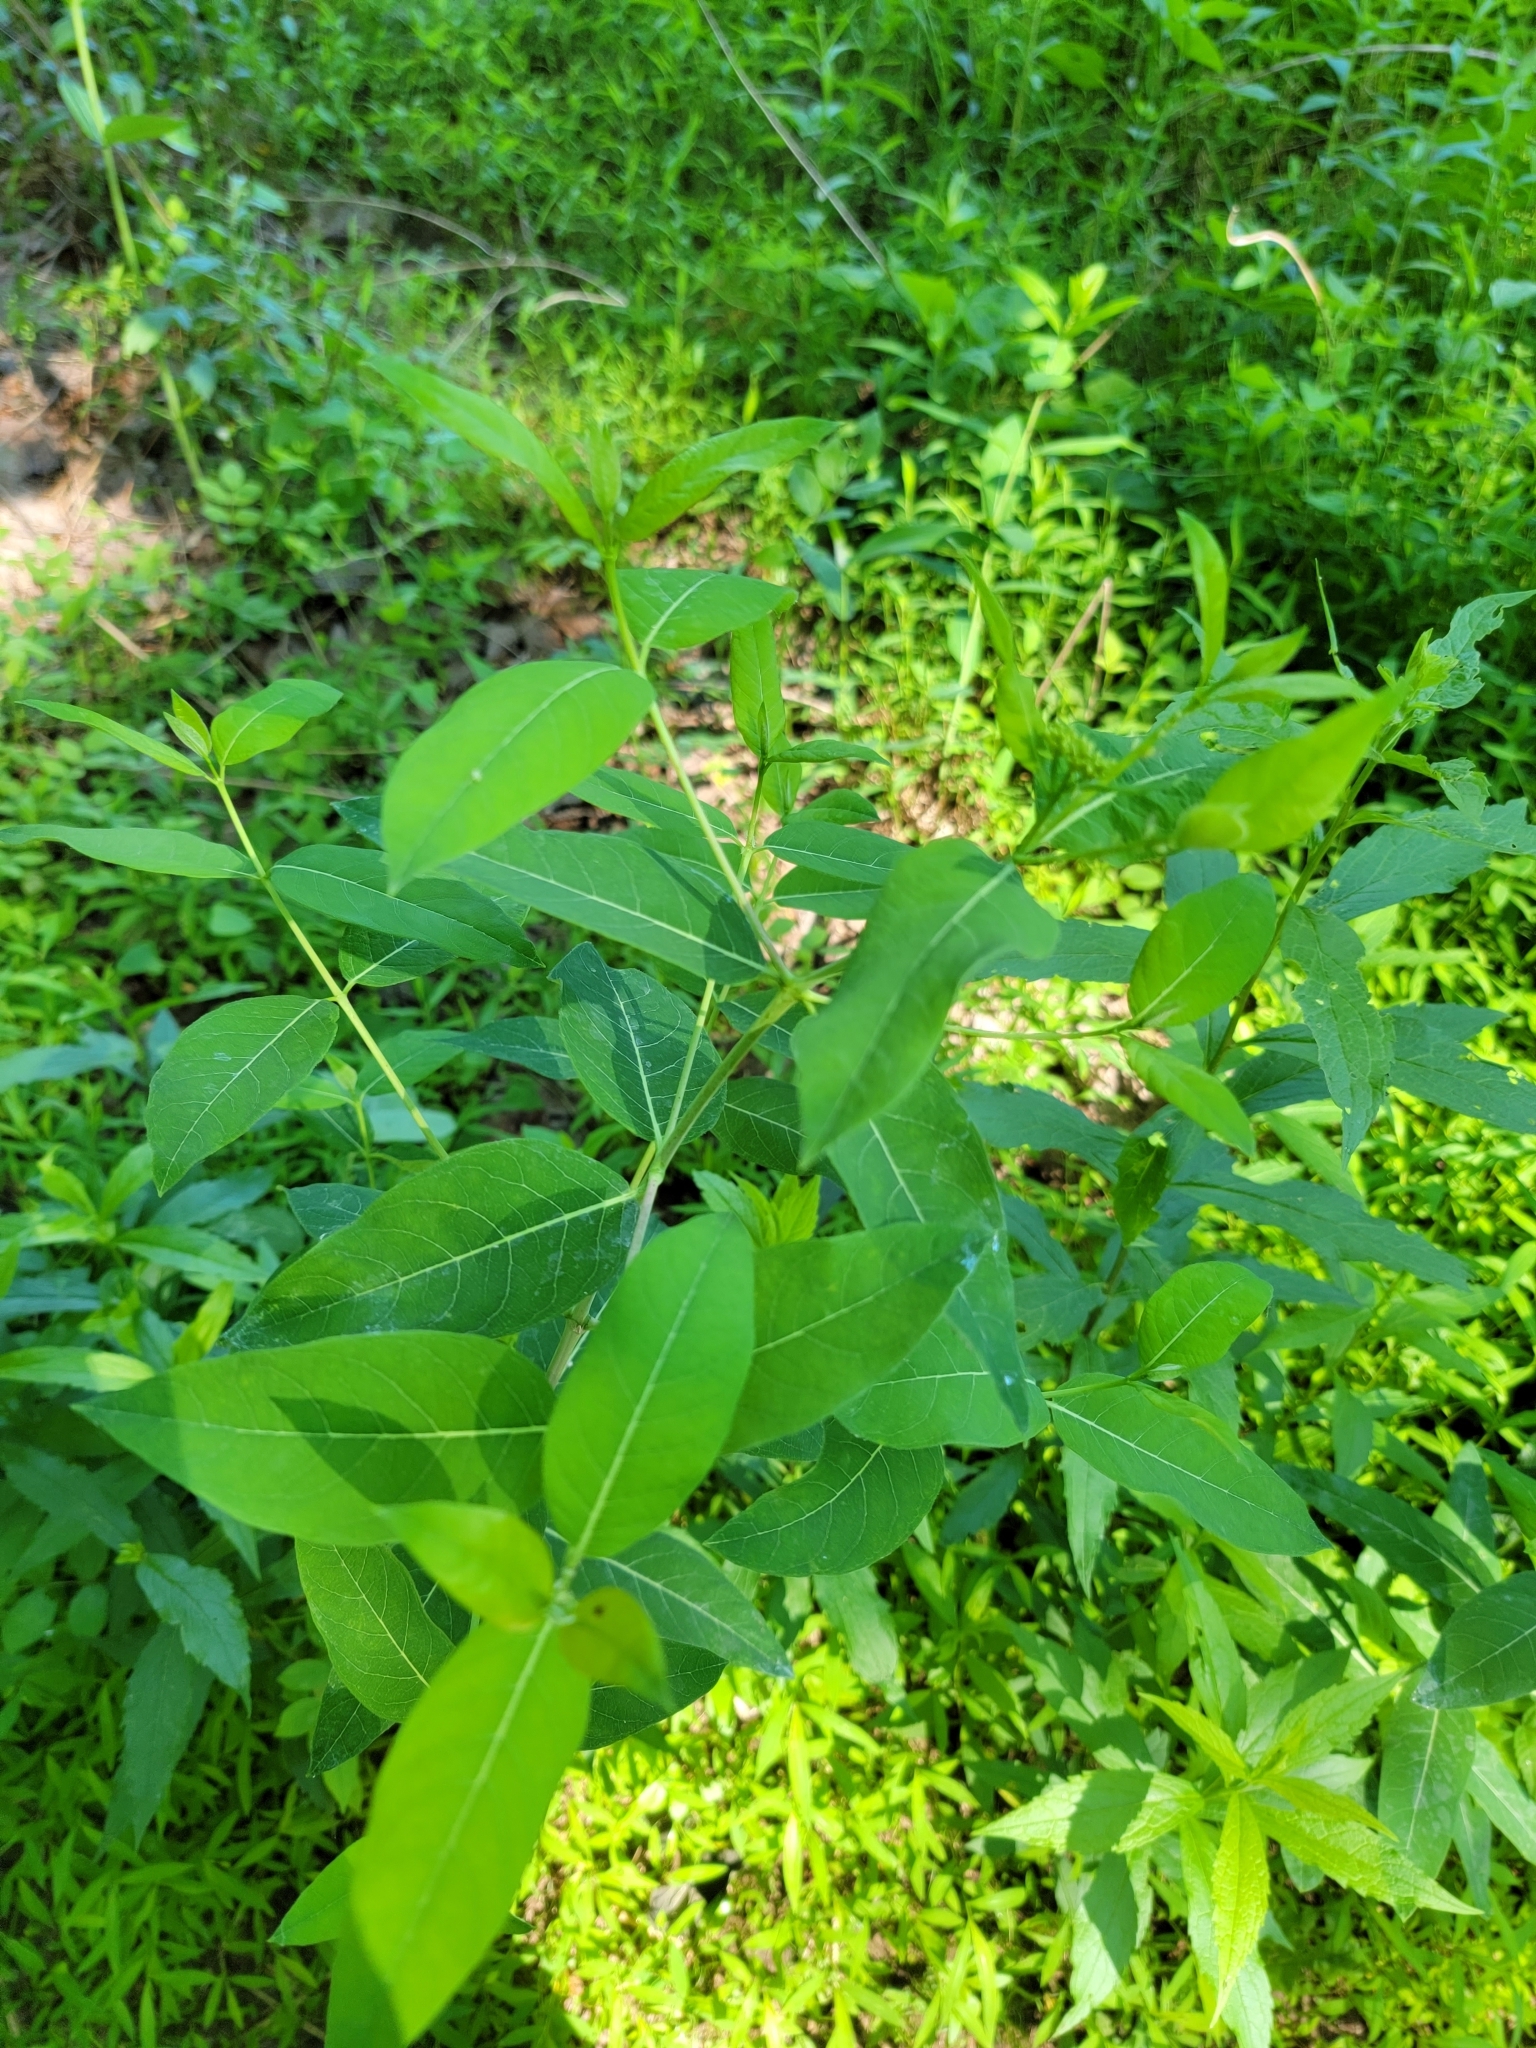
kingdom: Plantae
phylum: Tracheophyta
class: Magnoliopsida
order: Gentianales
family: Apocynaceae
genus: Apocynum
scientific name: Apocynum cannabinum
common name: Hemp dogbane
